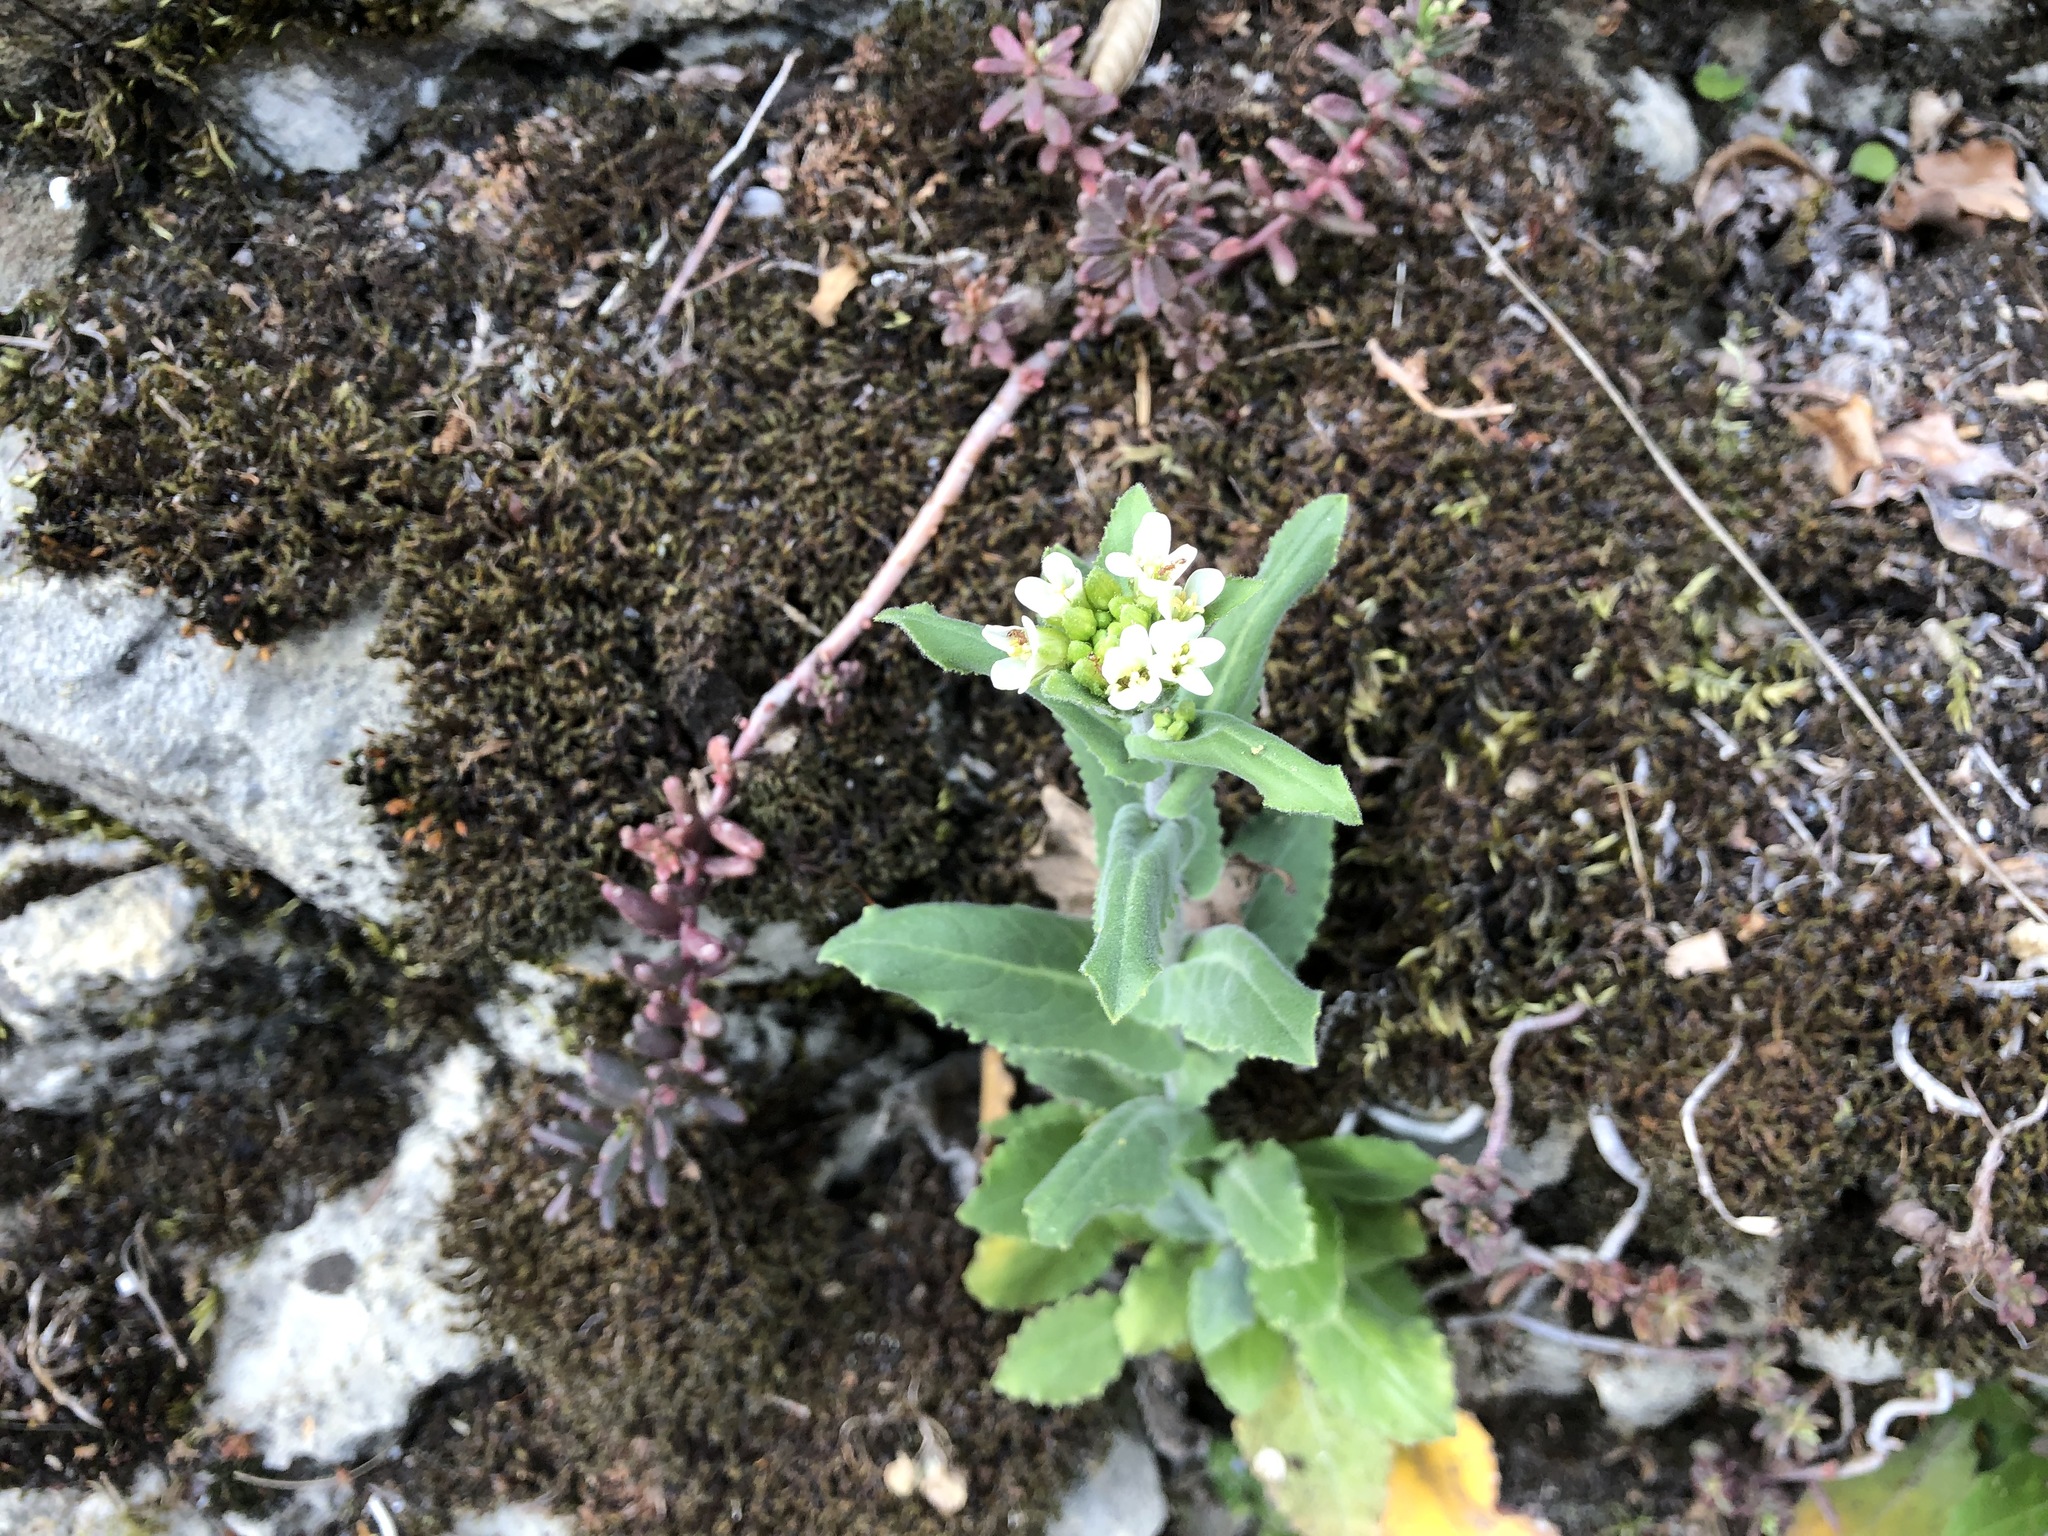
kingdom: Plantae
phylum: Tracheophyta
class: Magnoliopsida
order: Brassicales
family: Brassicaceae
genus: Pseudoturritis
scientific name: Pseudoturritis turrita
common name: Tower cress
